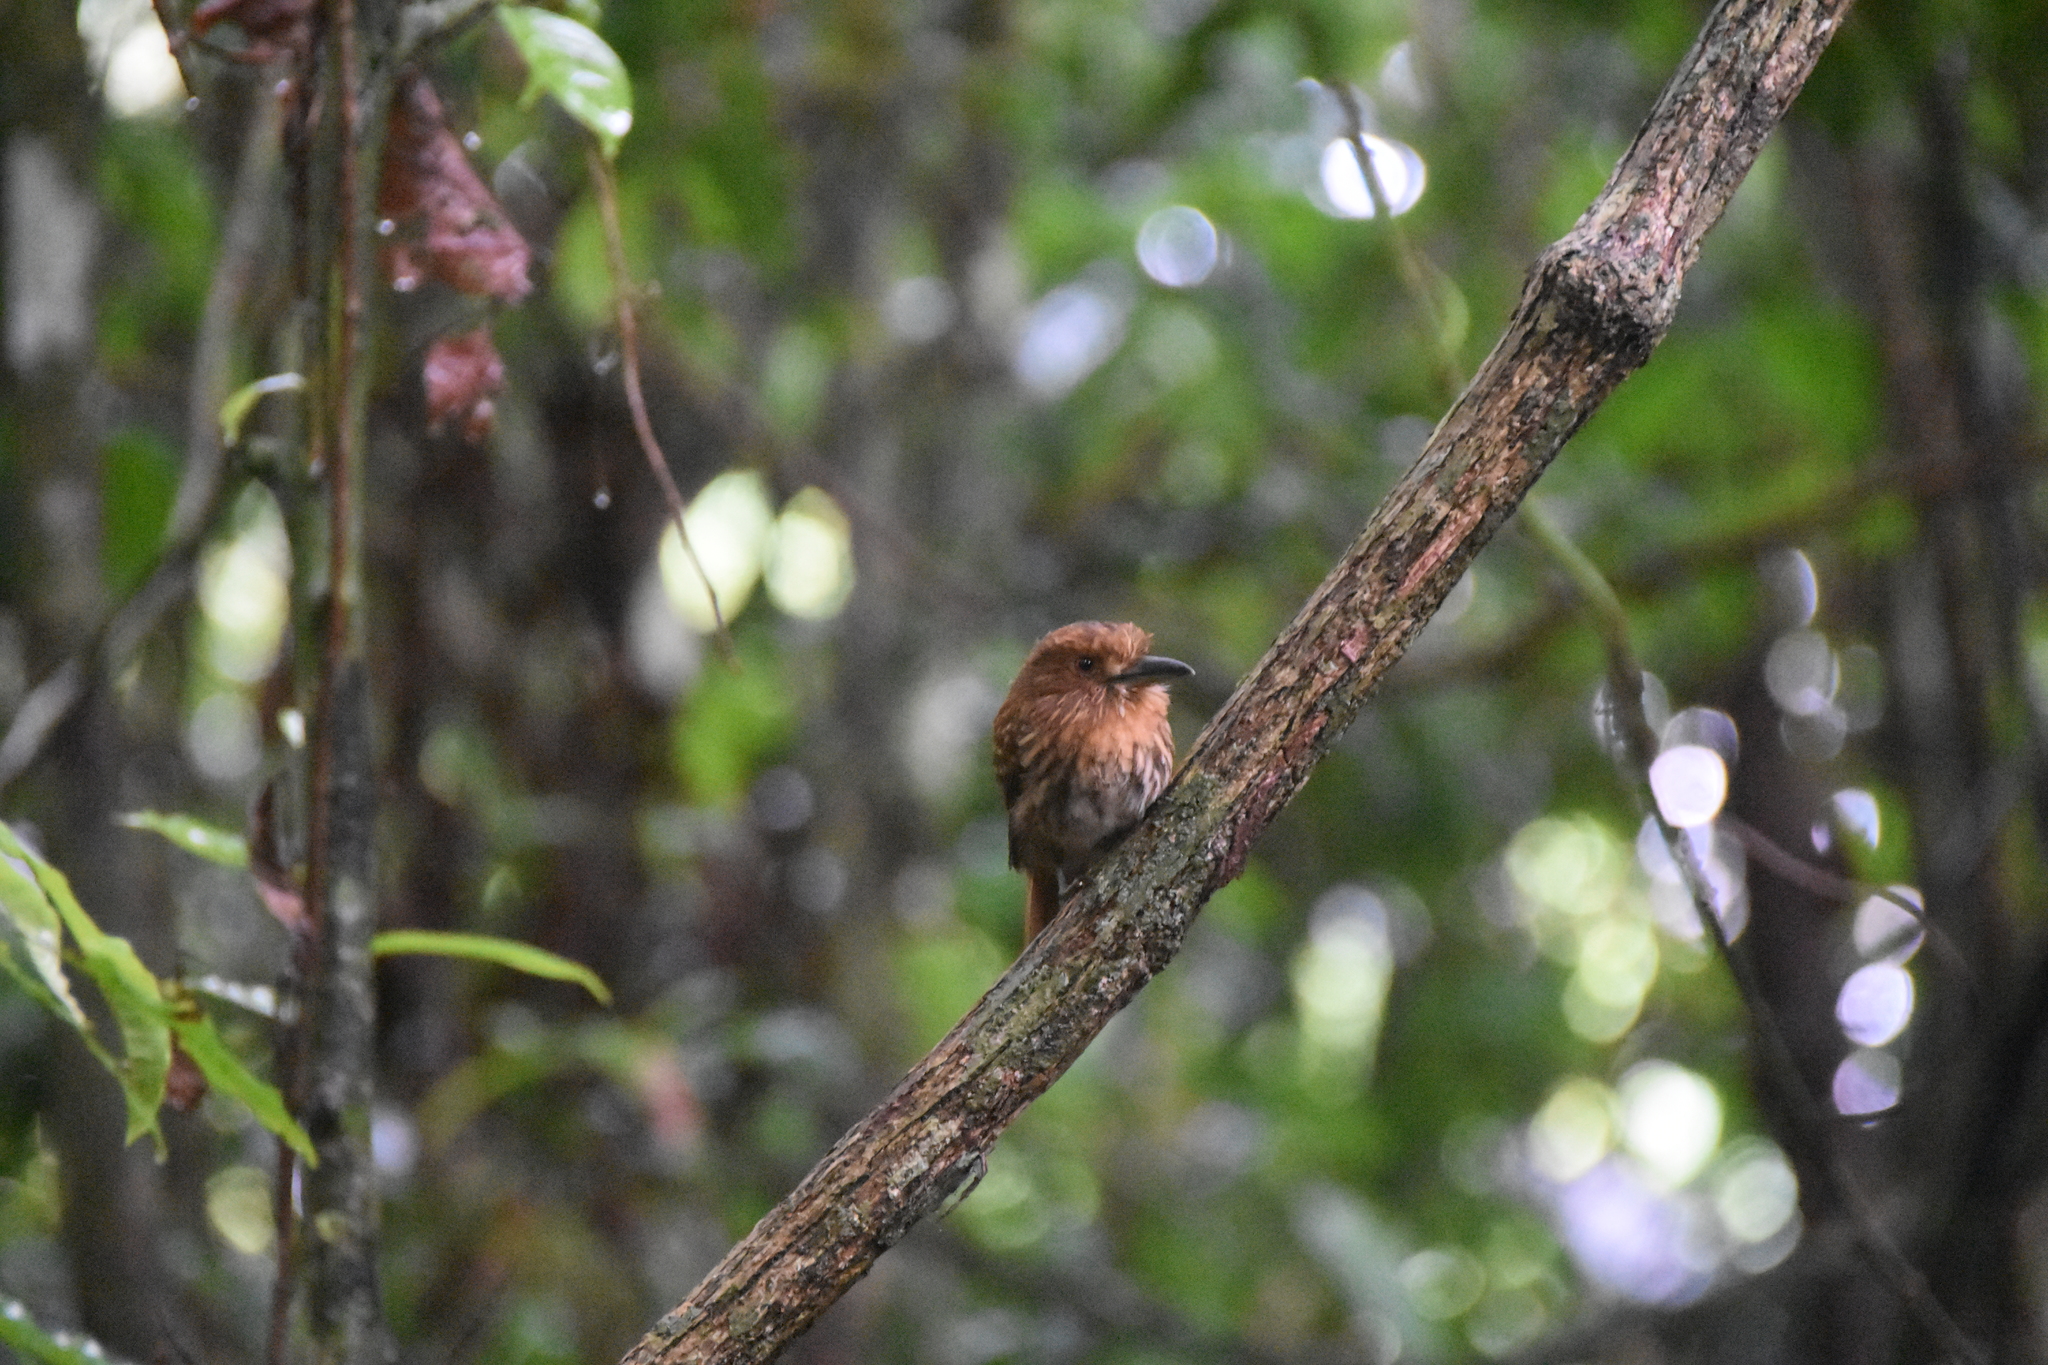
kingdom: Animalia
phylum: Chordata
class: Aves
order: Piciformes
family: Bucconidae
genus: Malacoptila
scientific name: Malacoptila panamensis
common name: White-whiskered puffbird
